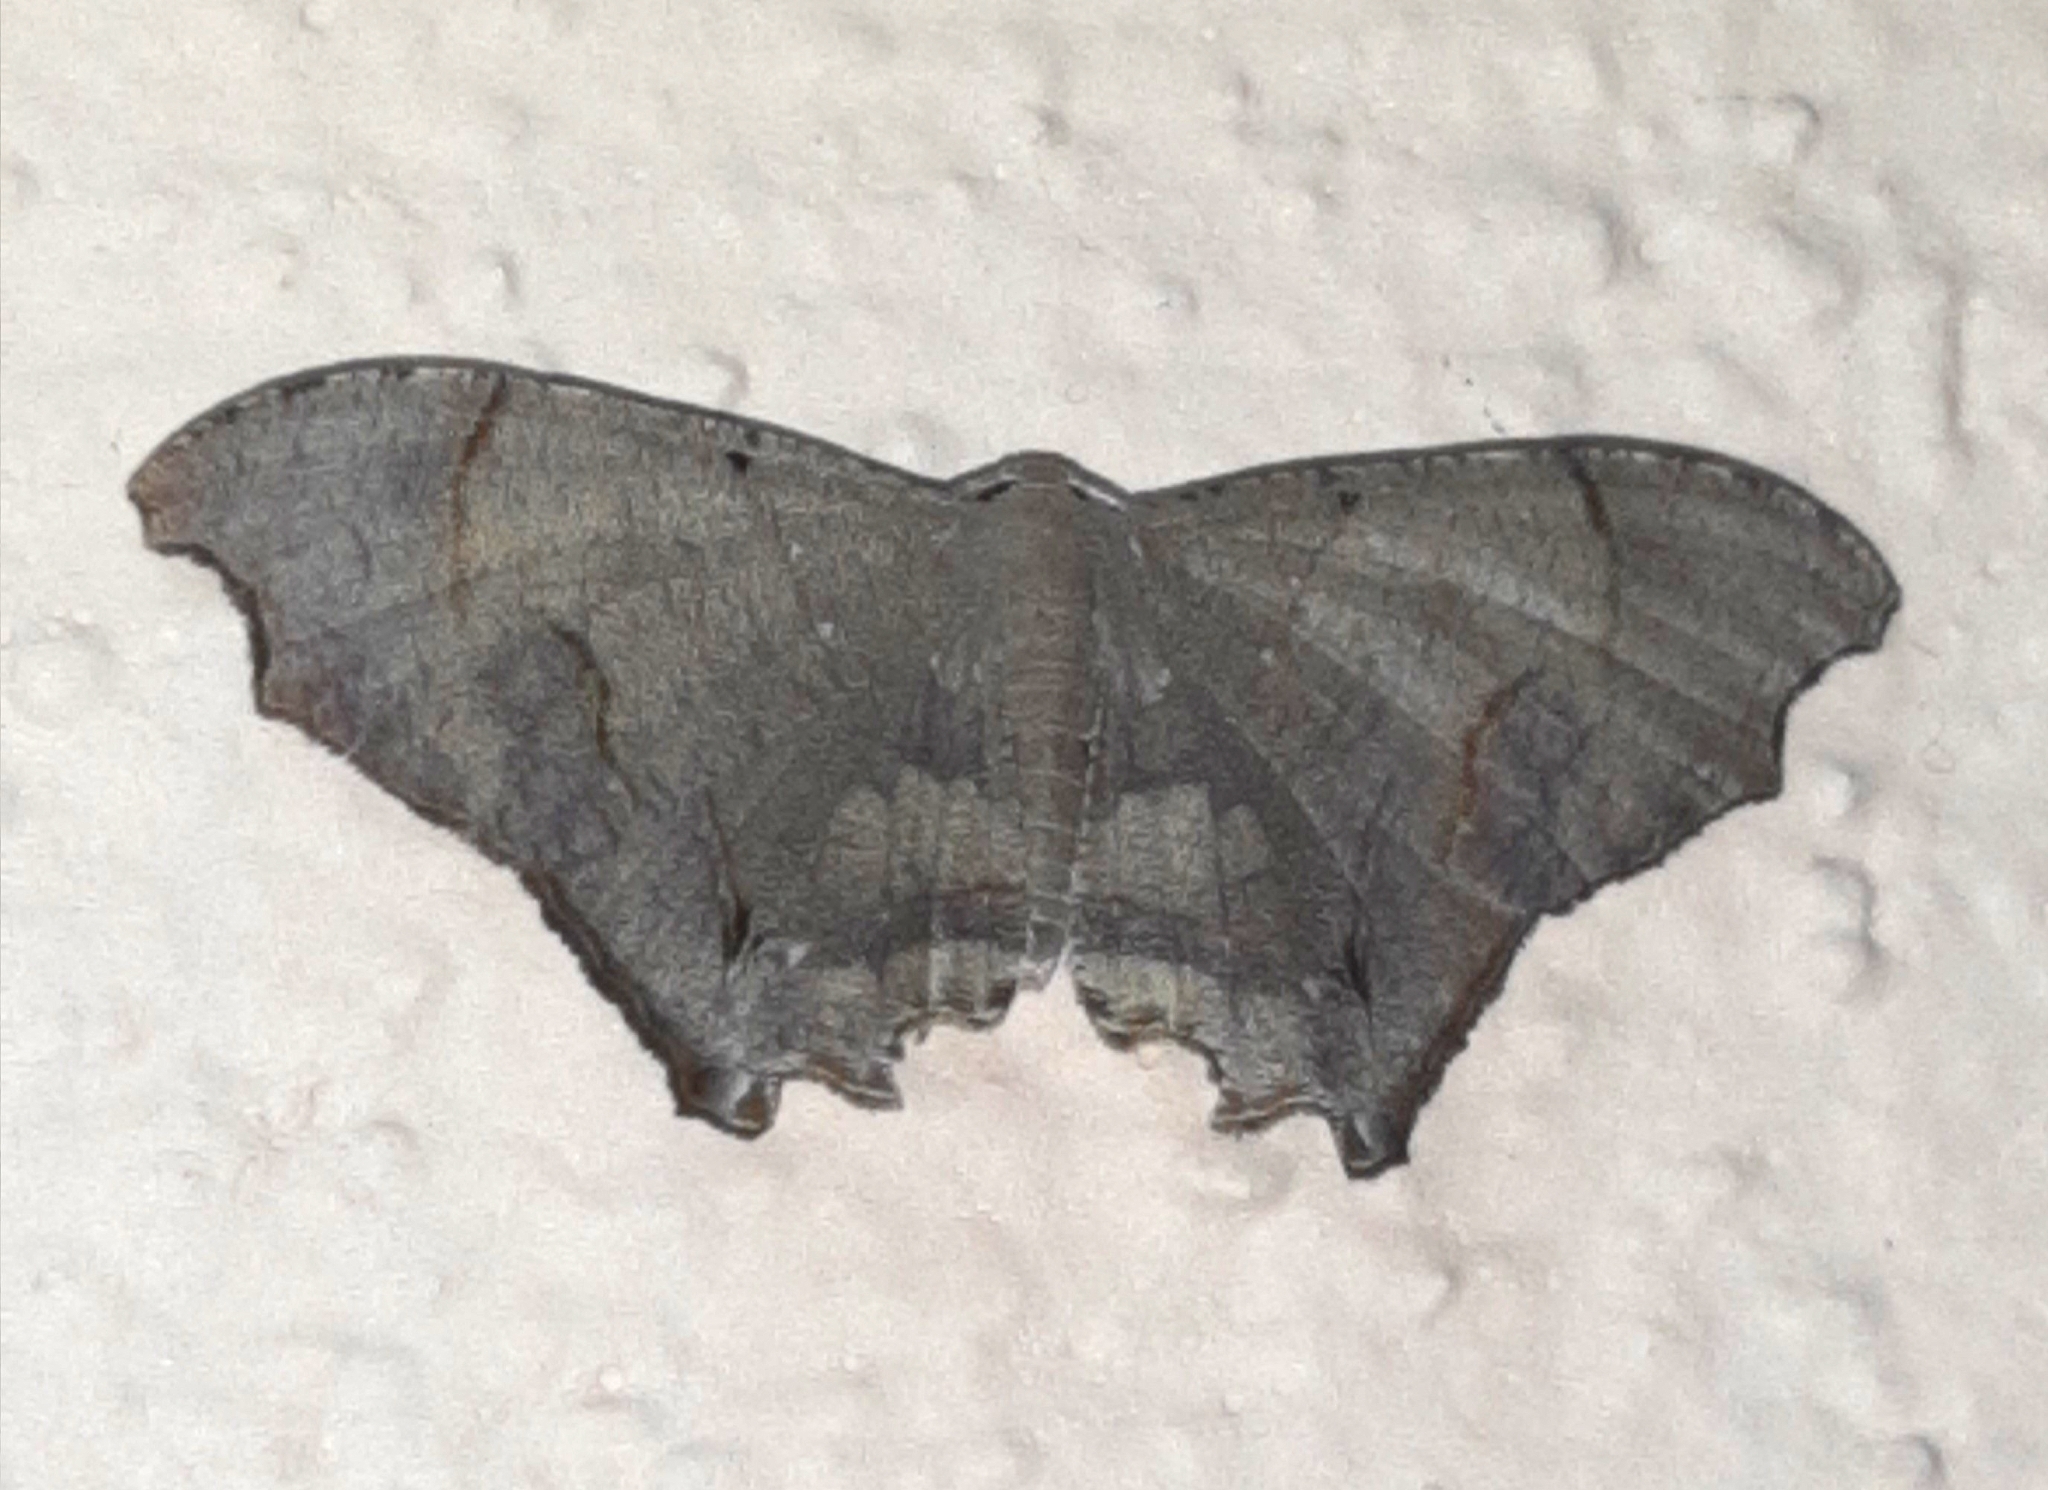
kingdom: Animalia
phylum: Arthropoda
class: Insecta
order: Lepidoptera
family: Uraniidae
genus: Trotorhombia
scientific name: Trotorhombia metachromata
